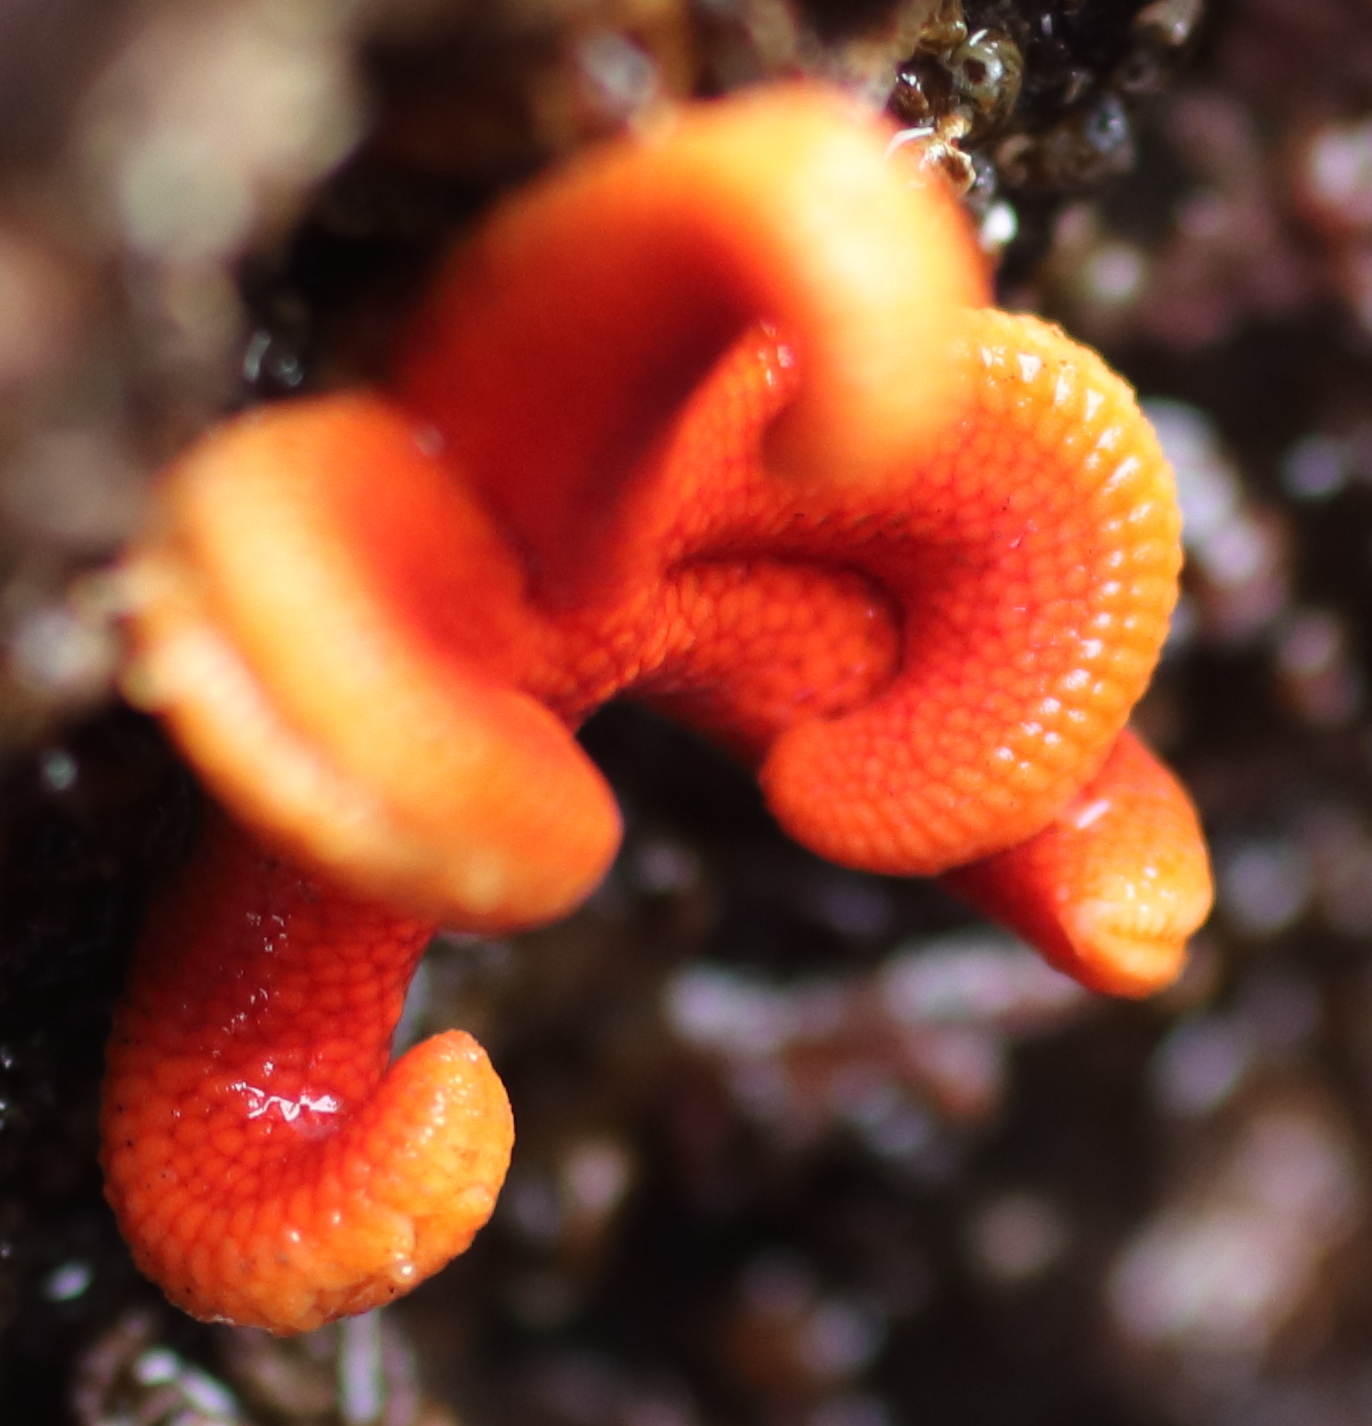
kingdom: Animalia
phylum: Echinodermata
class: Asteroidea
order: Spinulosida
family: Echinasteridae
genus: Henricia
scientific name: Henricia
